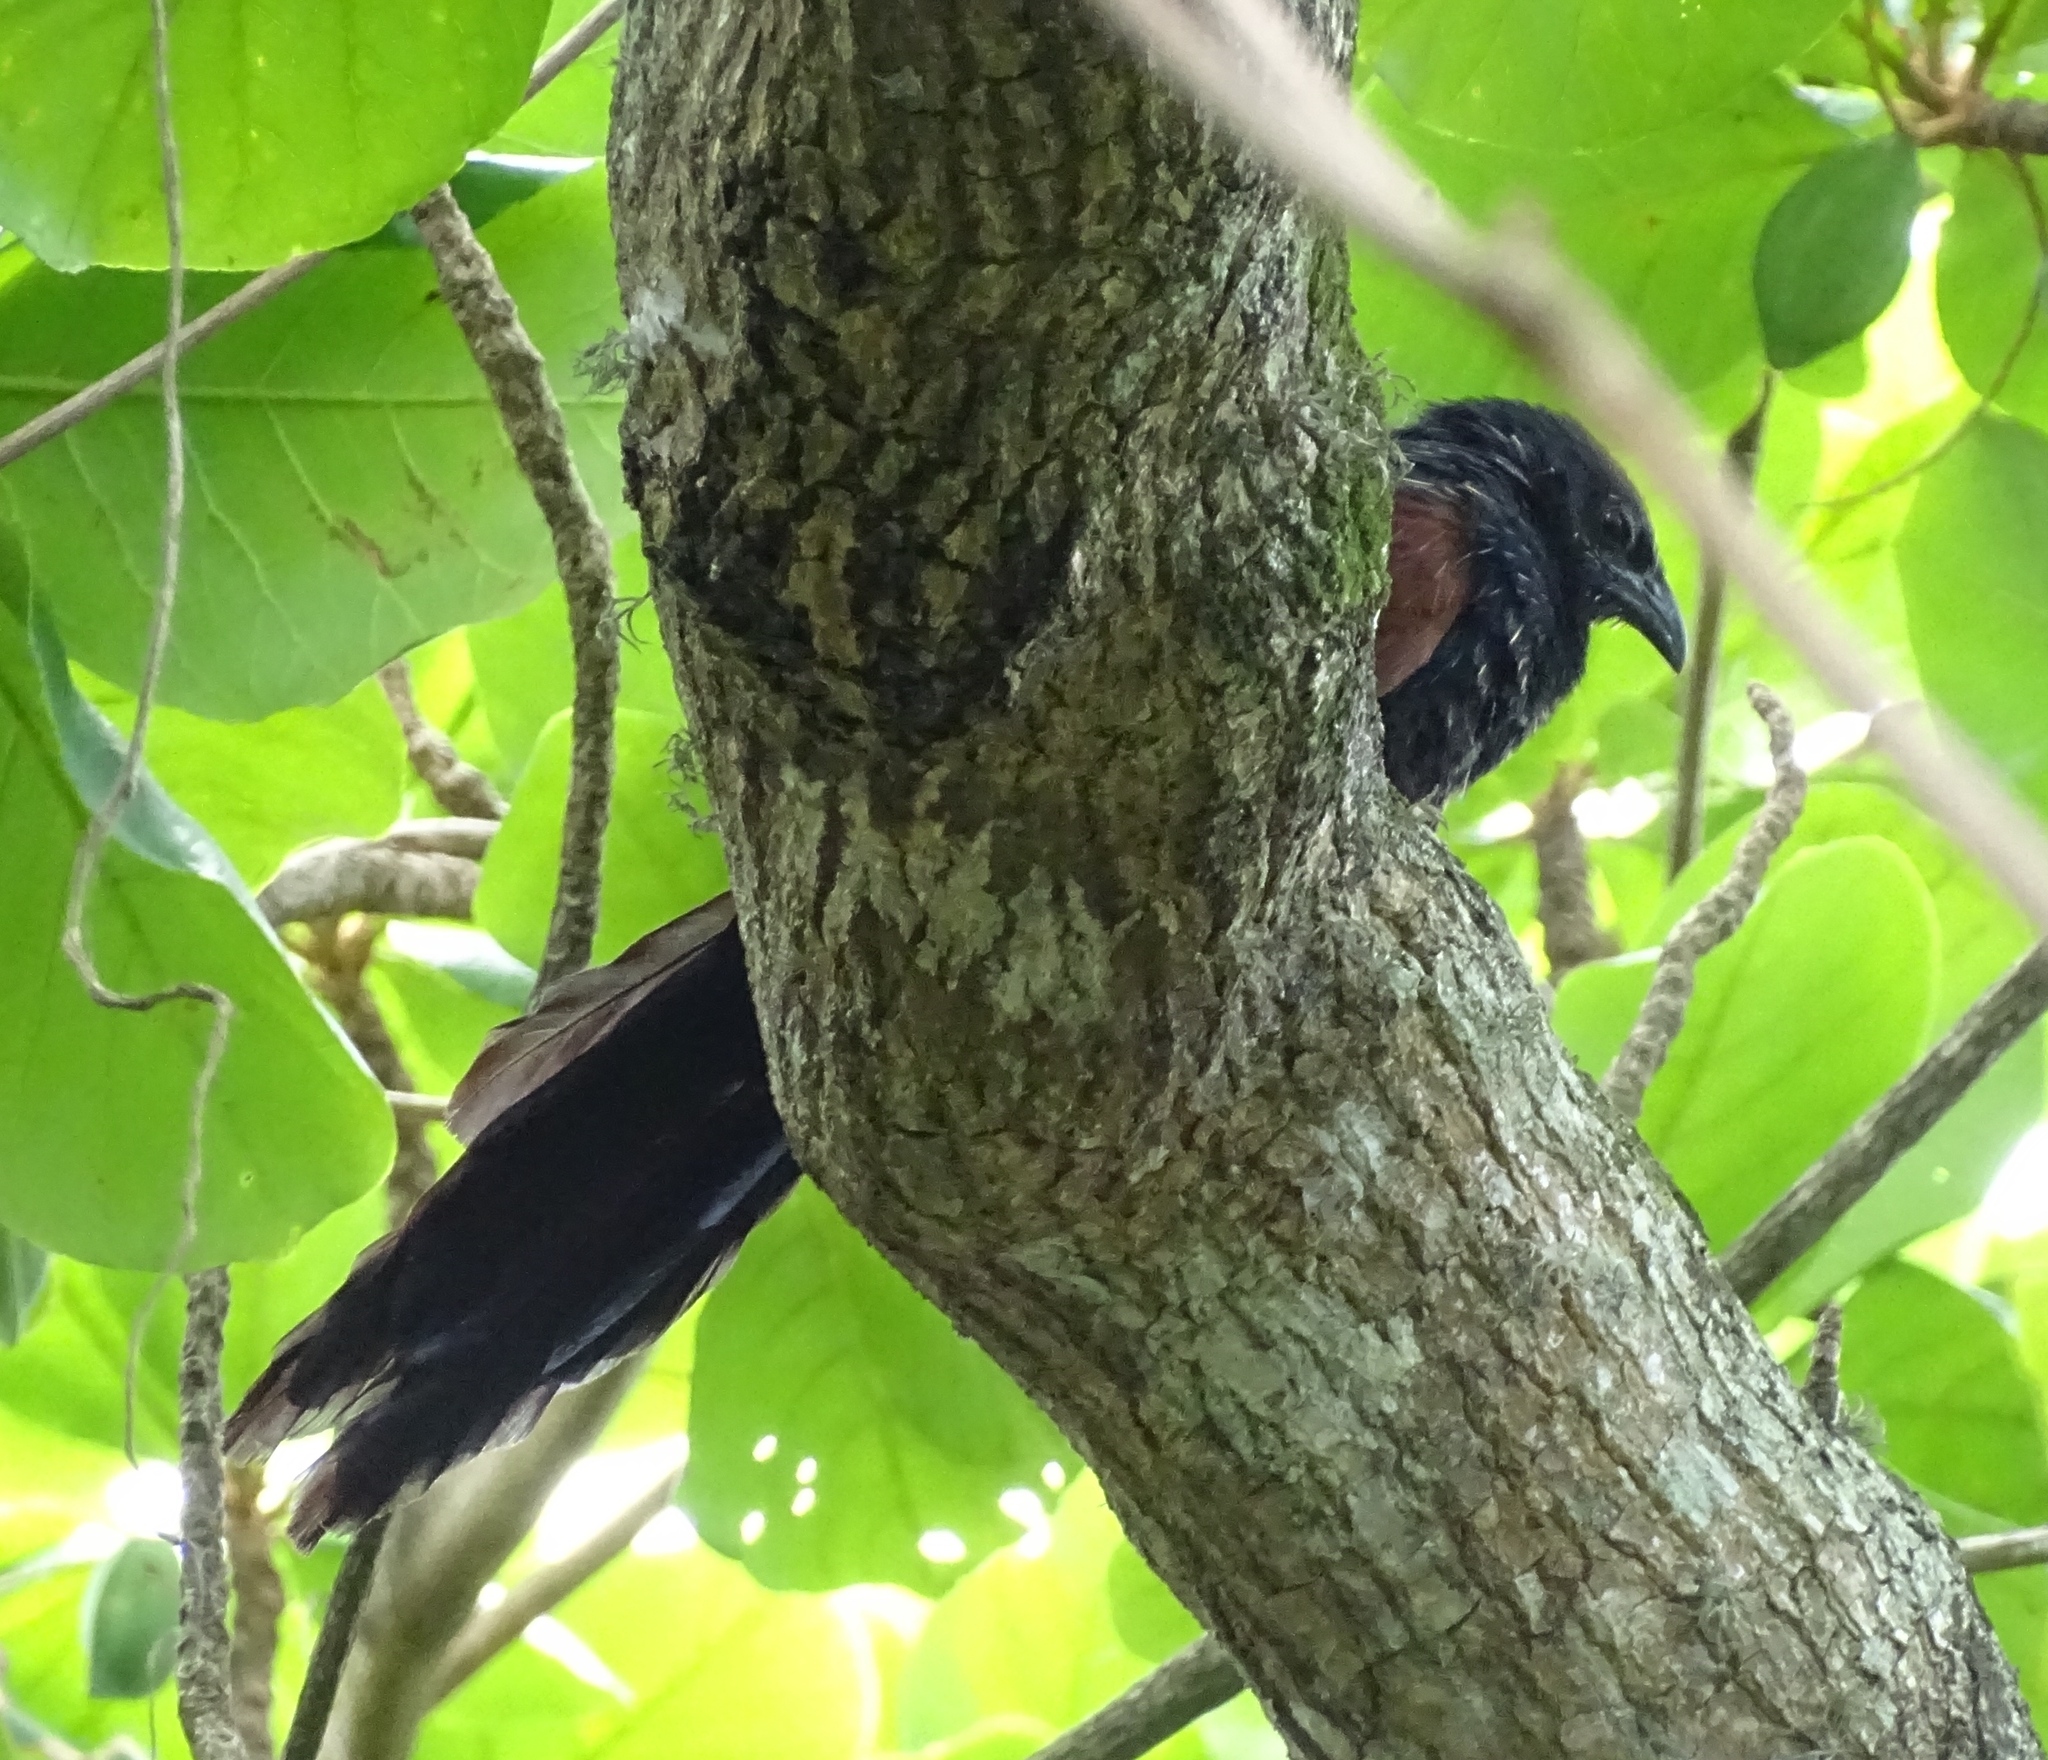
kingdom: Animalia
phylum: Chordata
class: Aves
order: Cuculiformes
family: Cuculidae
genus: Centropus
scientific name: Centropus toulou
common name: Malagasy coucal
